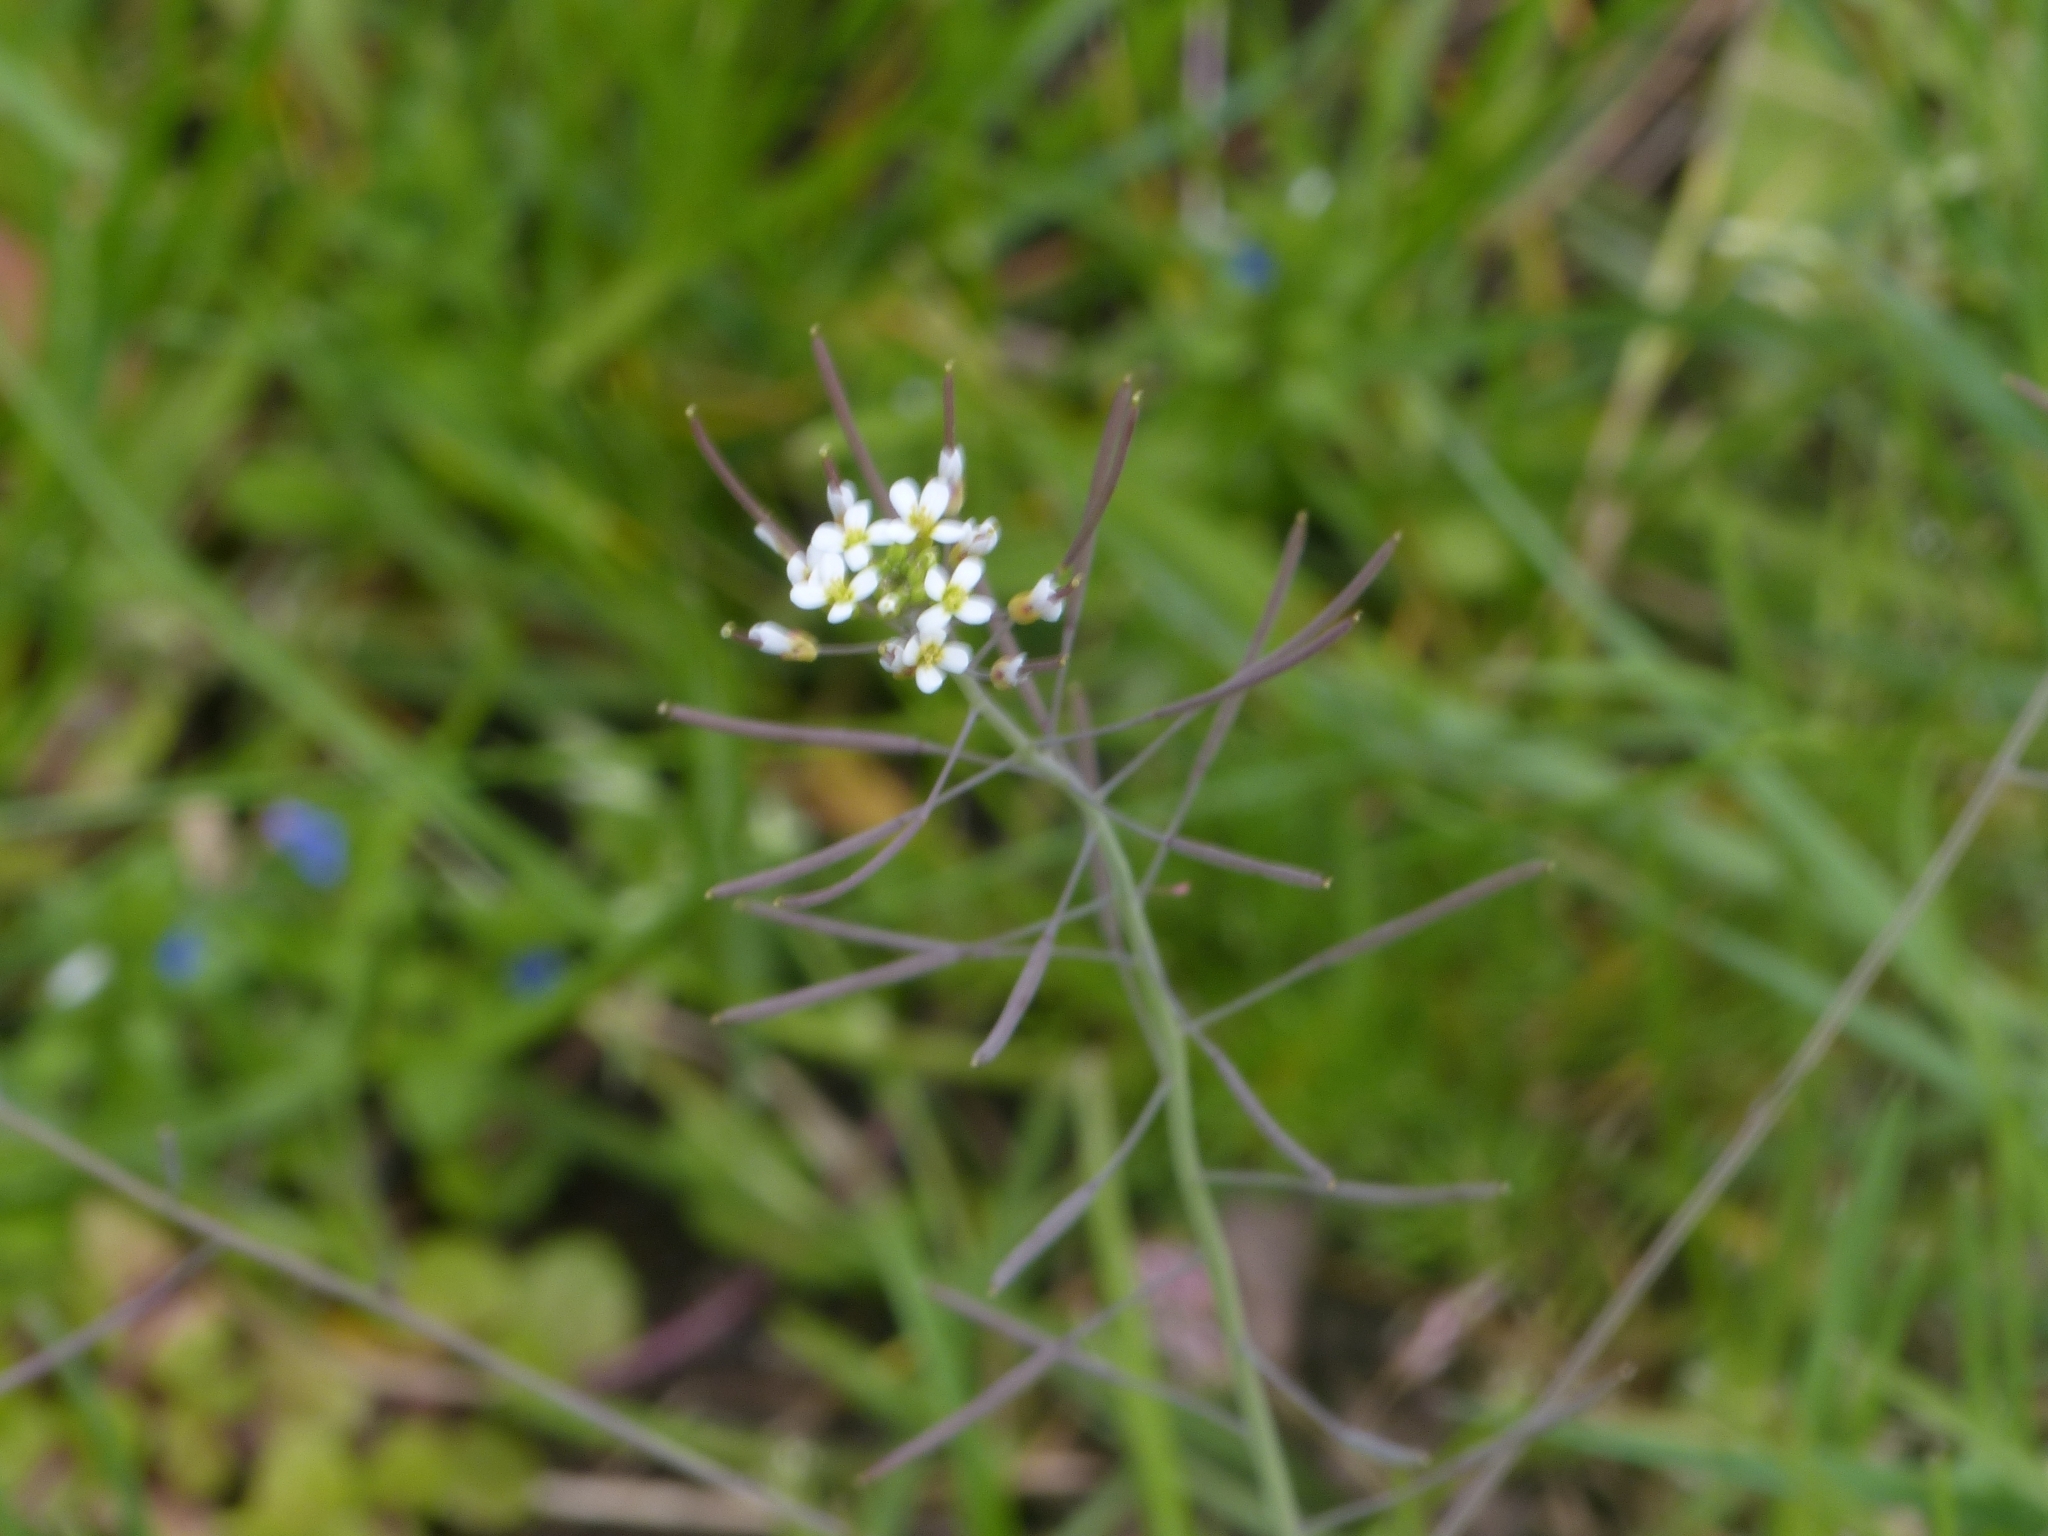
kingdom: Plantae
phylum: Tracheophyta
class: Magnoliopsida
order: Brassicales
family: Brassicaceae
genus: Arabidopsis
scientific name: Arabidopsis thaliana
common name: Thale cress
